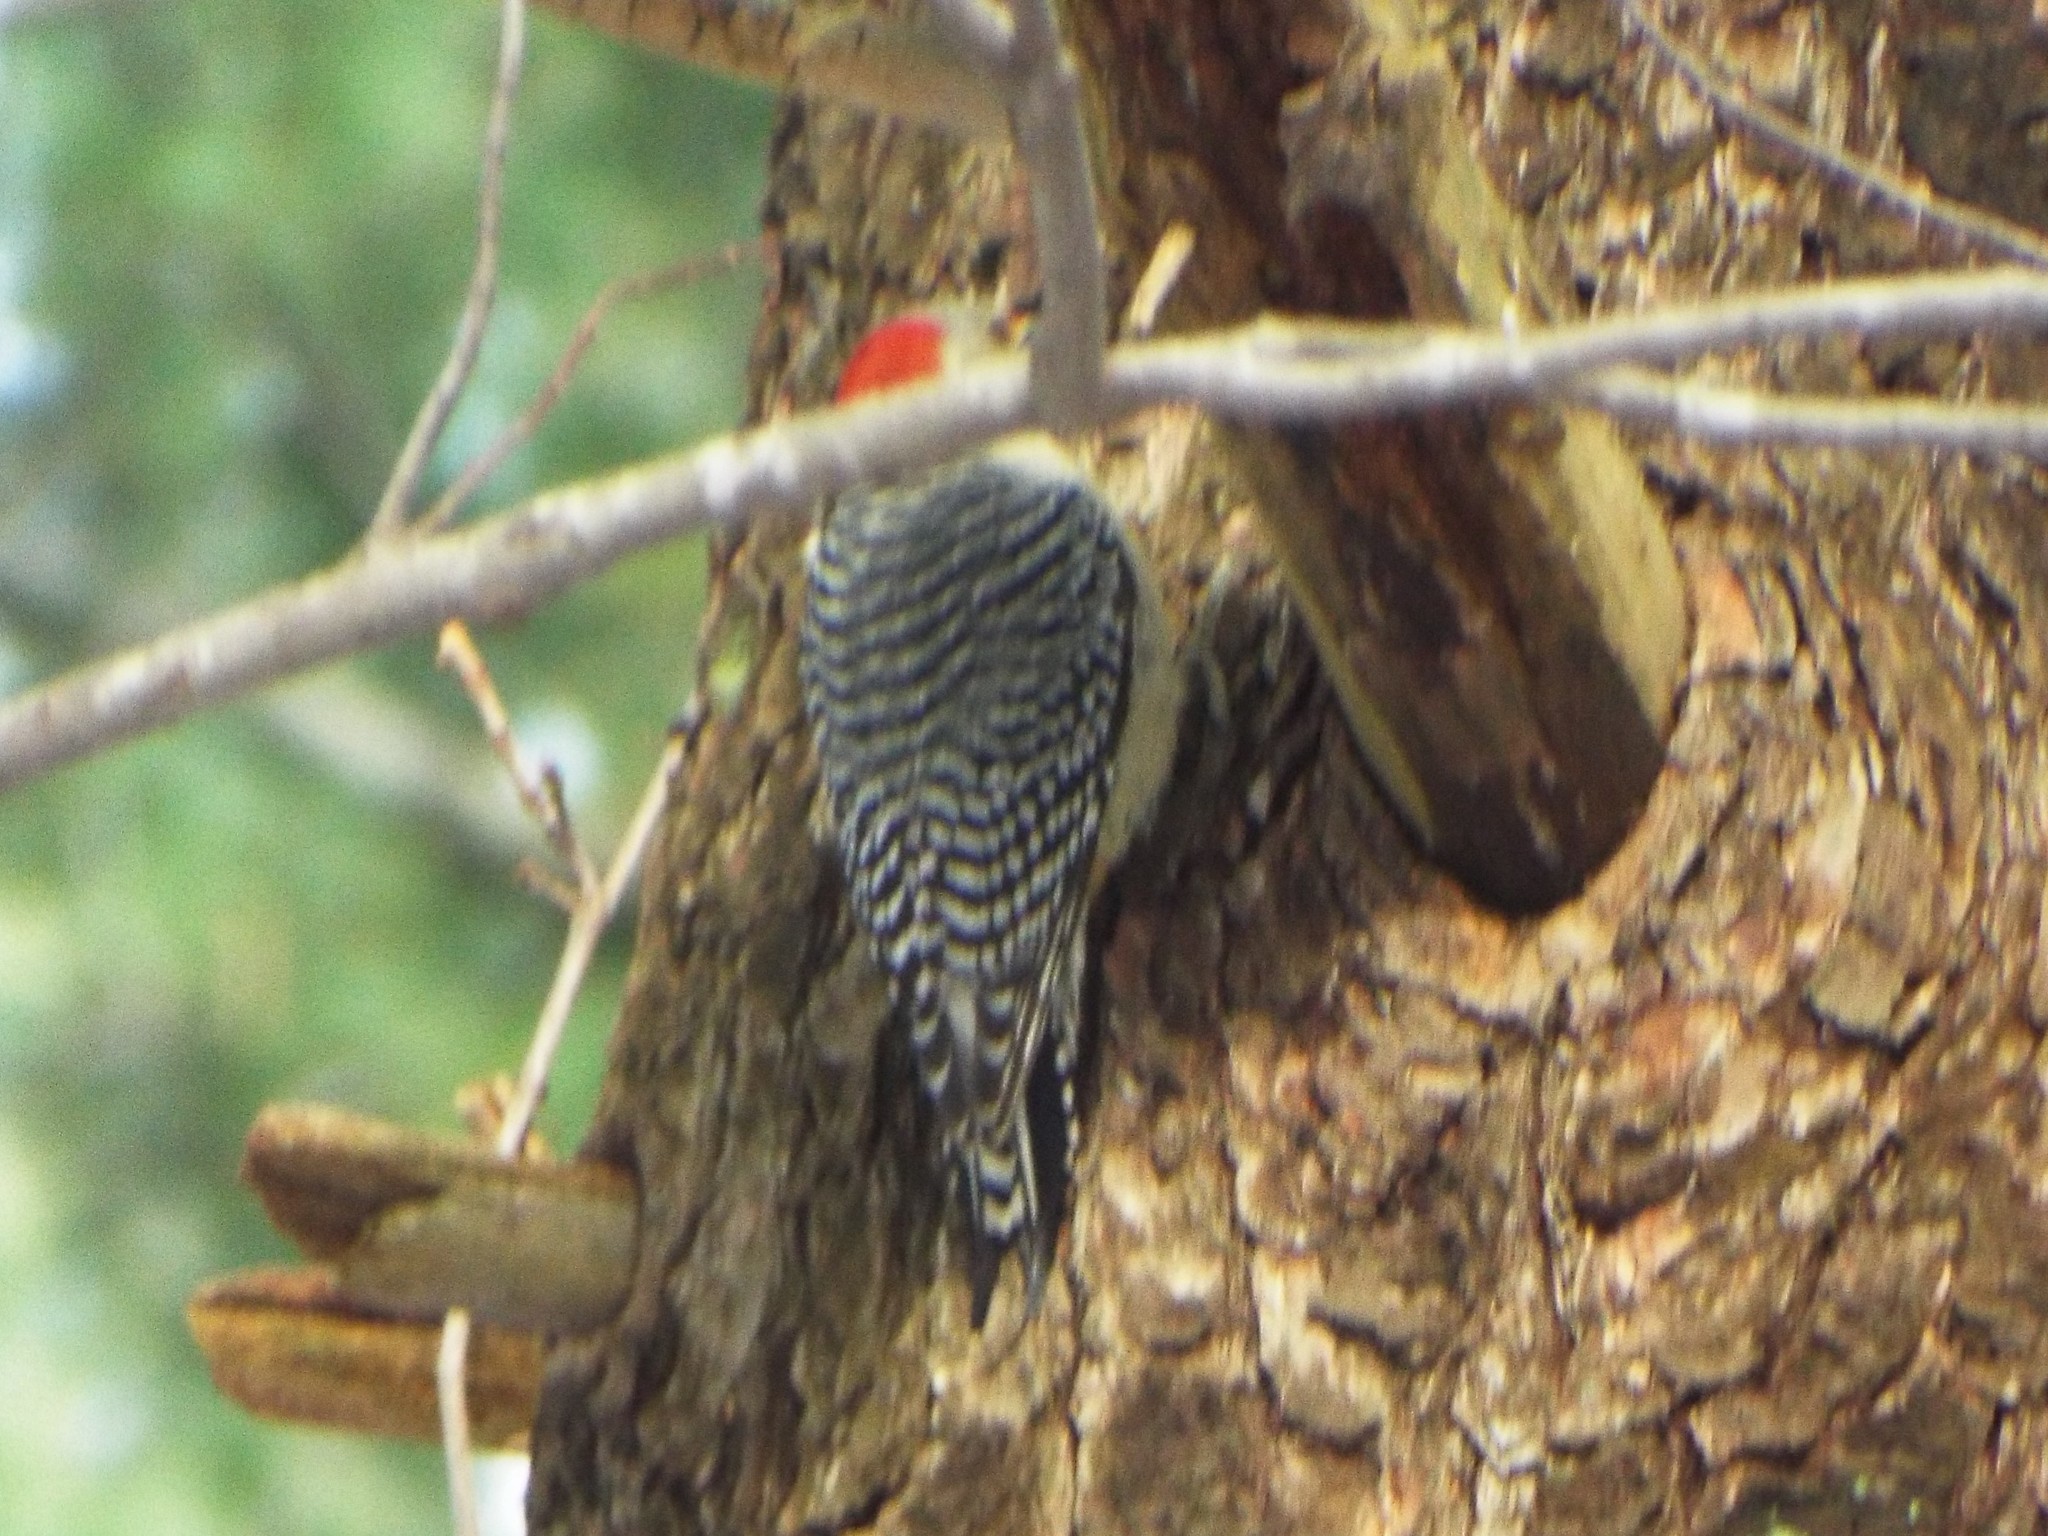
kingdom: Animalia
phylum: Chordata
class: Aves
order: Piciformes
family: Picidae
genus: Melanerpes
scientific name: Melanerpes carolinus
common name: Red-bellied woodpecker
